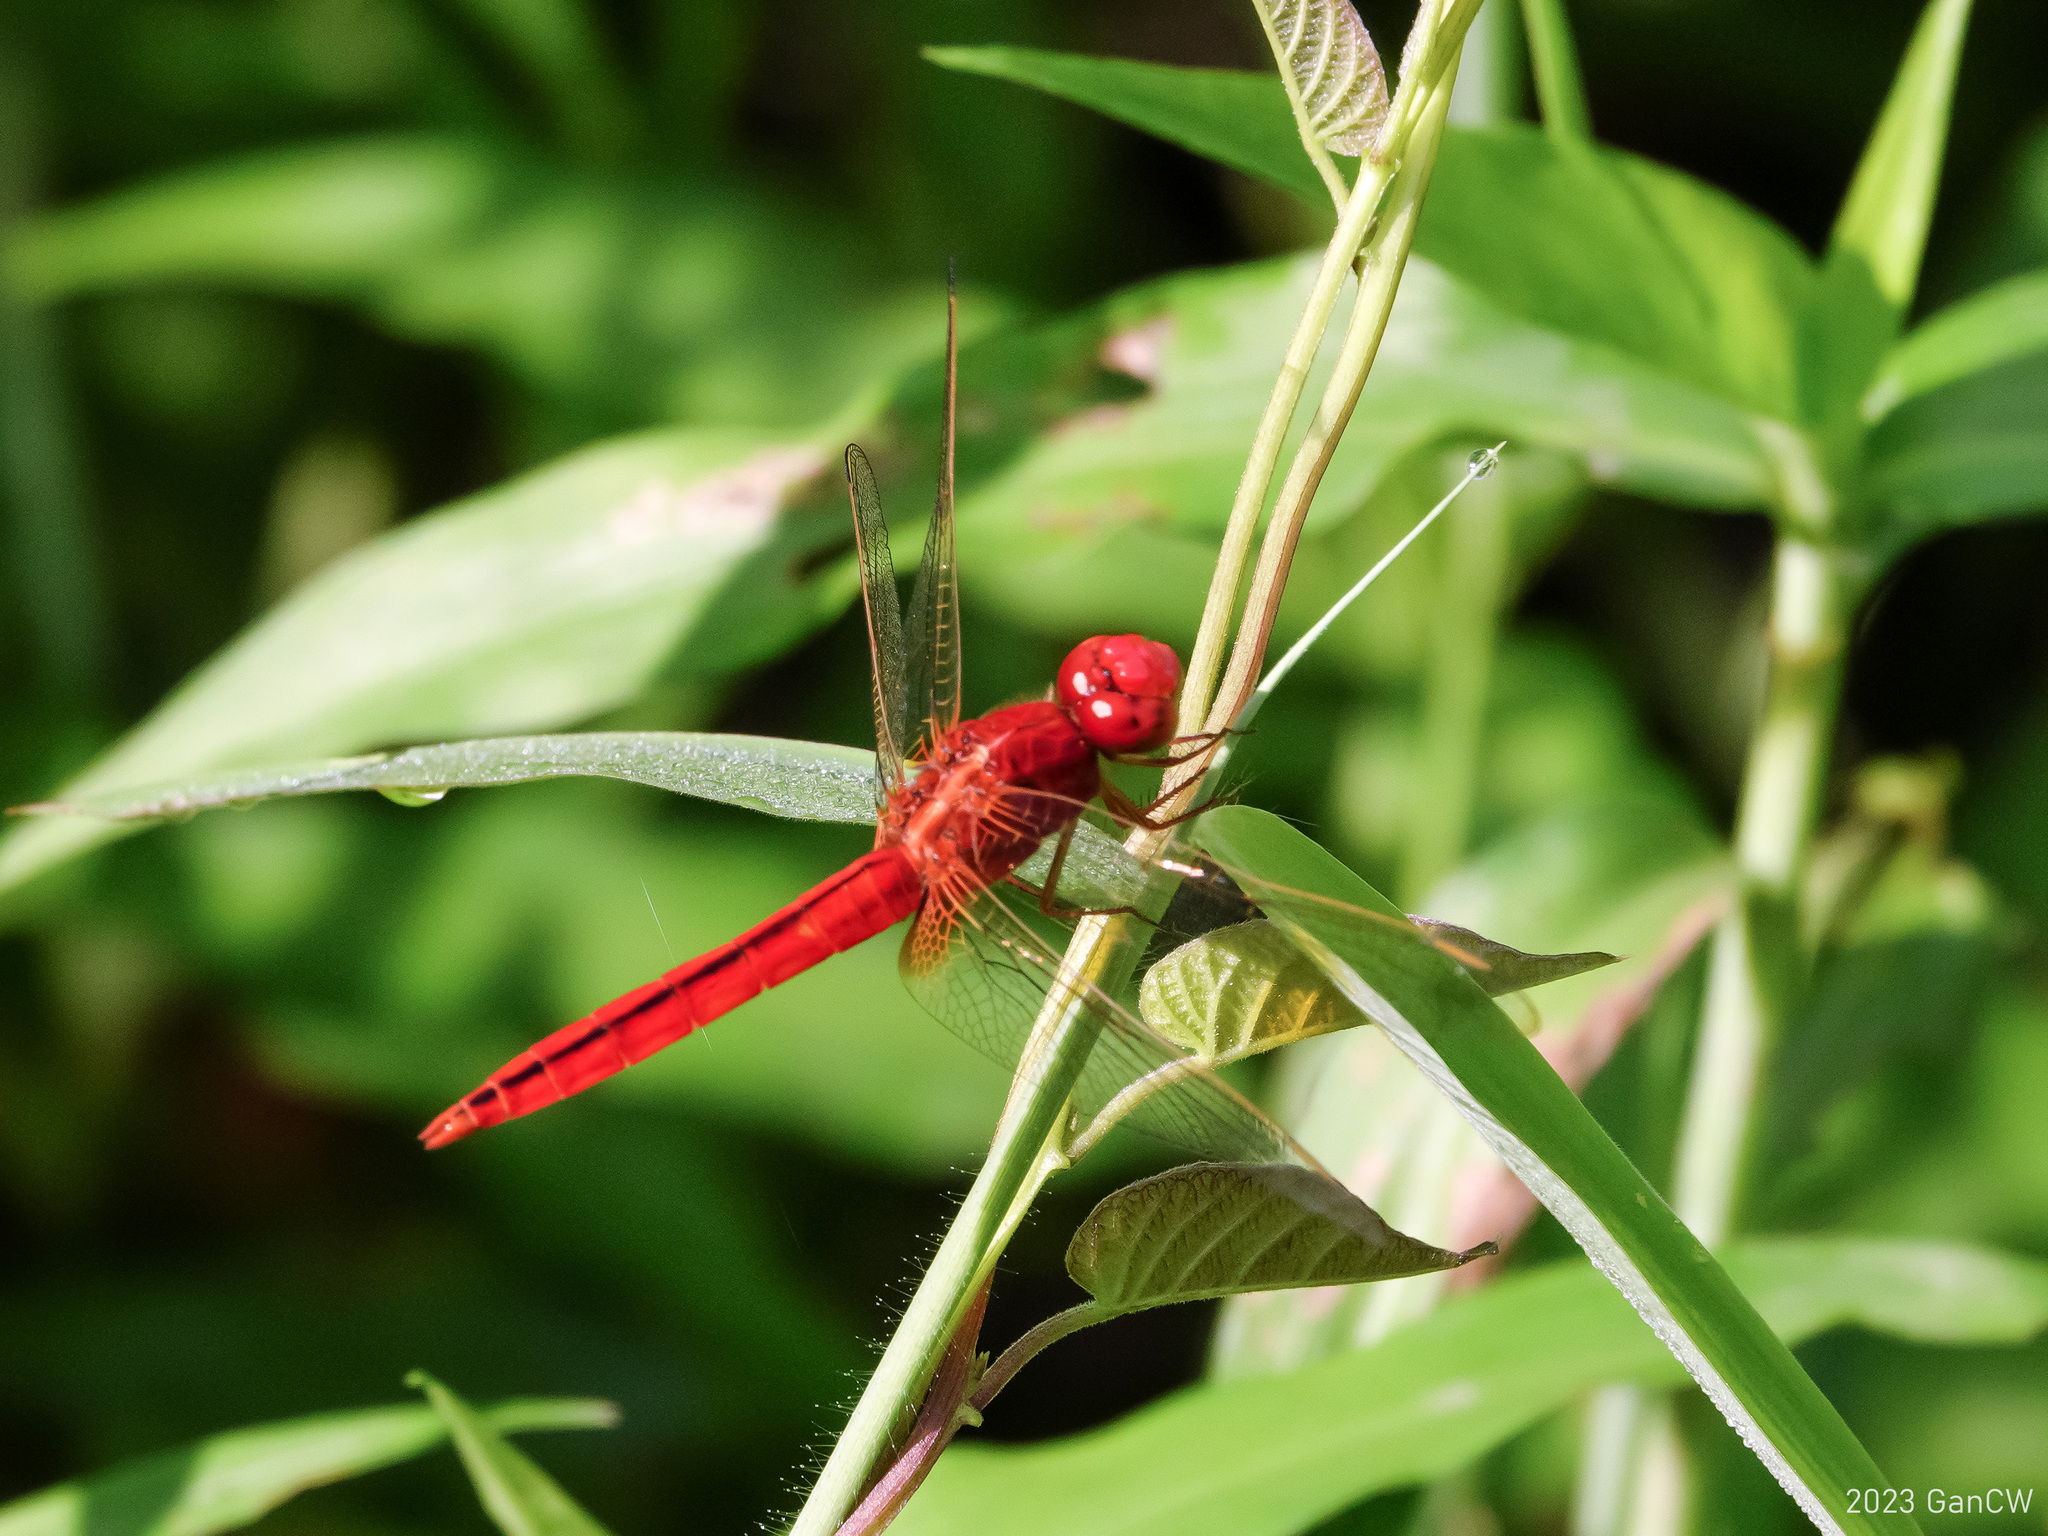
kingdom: Animalia
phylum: Arthropoda
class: Insecta
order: Odonata
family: Libellulidae
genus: Crocothemis
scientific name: Crocothemis servilia
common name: Scarlet skimmer
